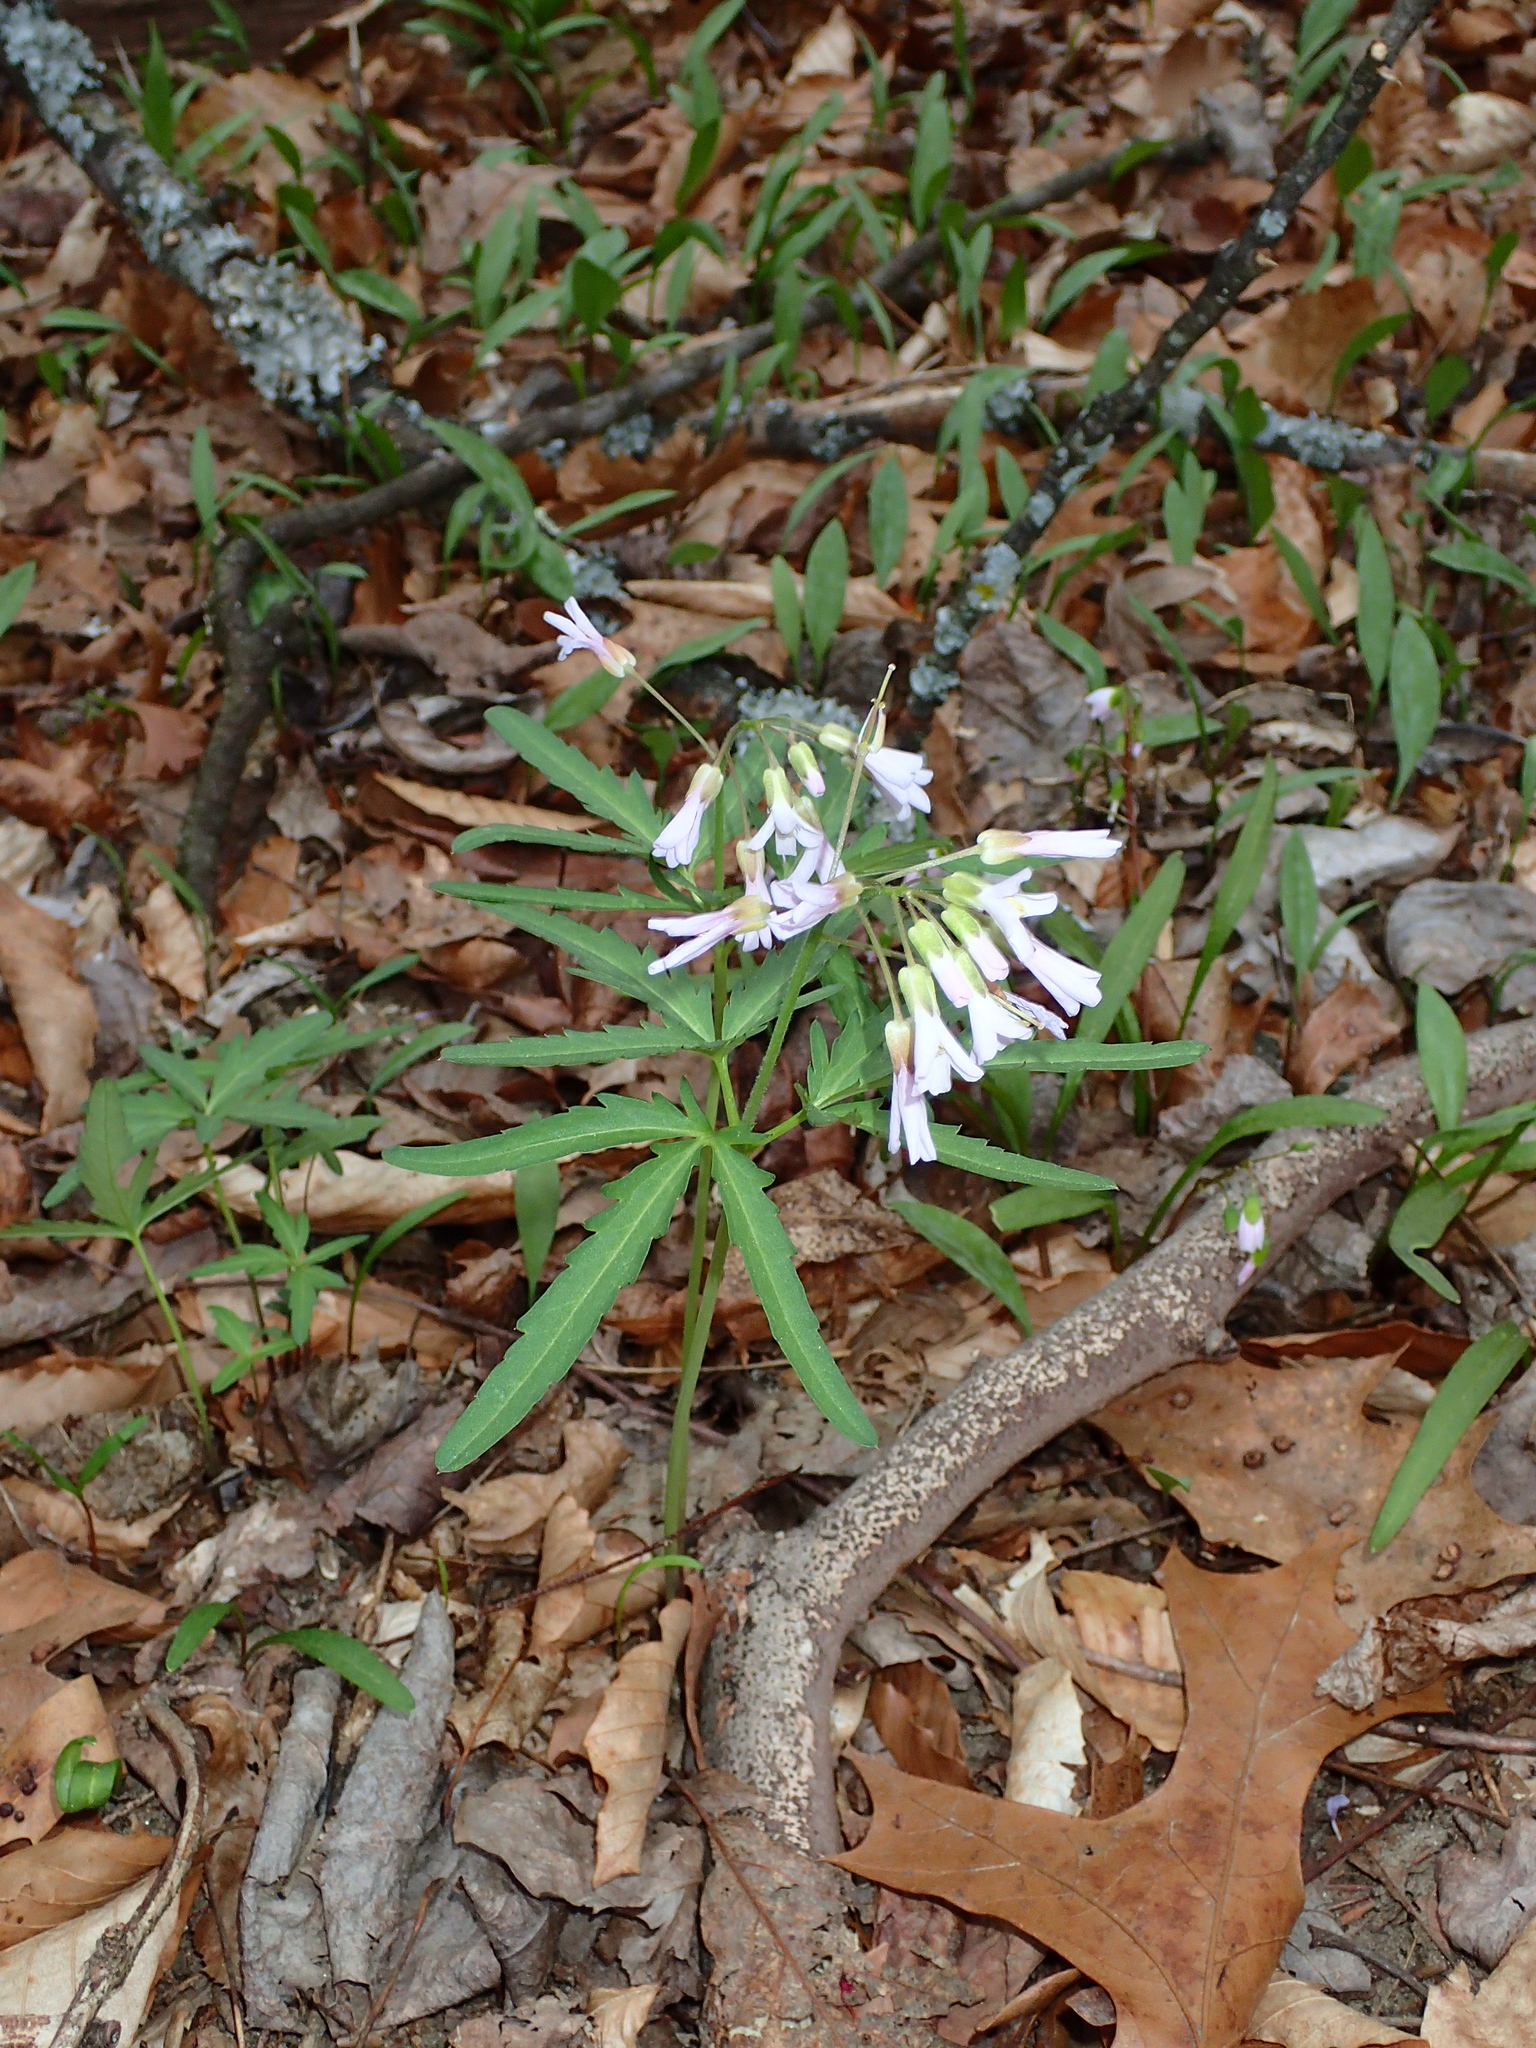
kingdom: Plantae
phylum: Tracheophyta
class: Magnoliopsida
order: Brassicales
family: Brassicaceae
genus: Cardamine
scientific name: Cardamine concatenata
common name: Cut-leaf toothcup
